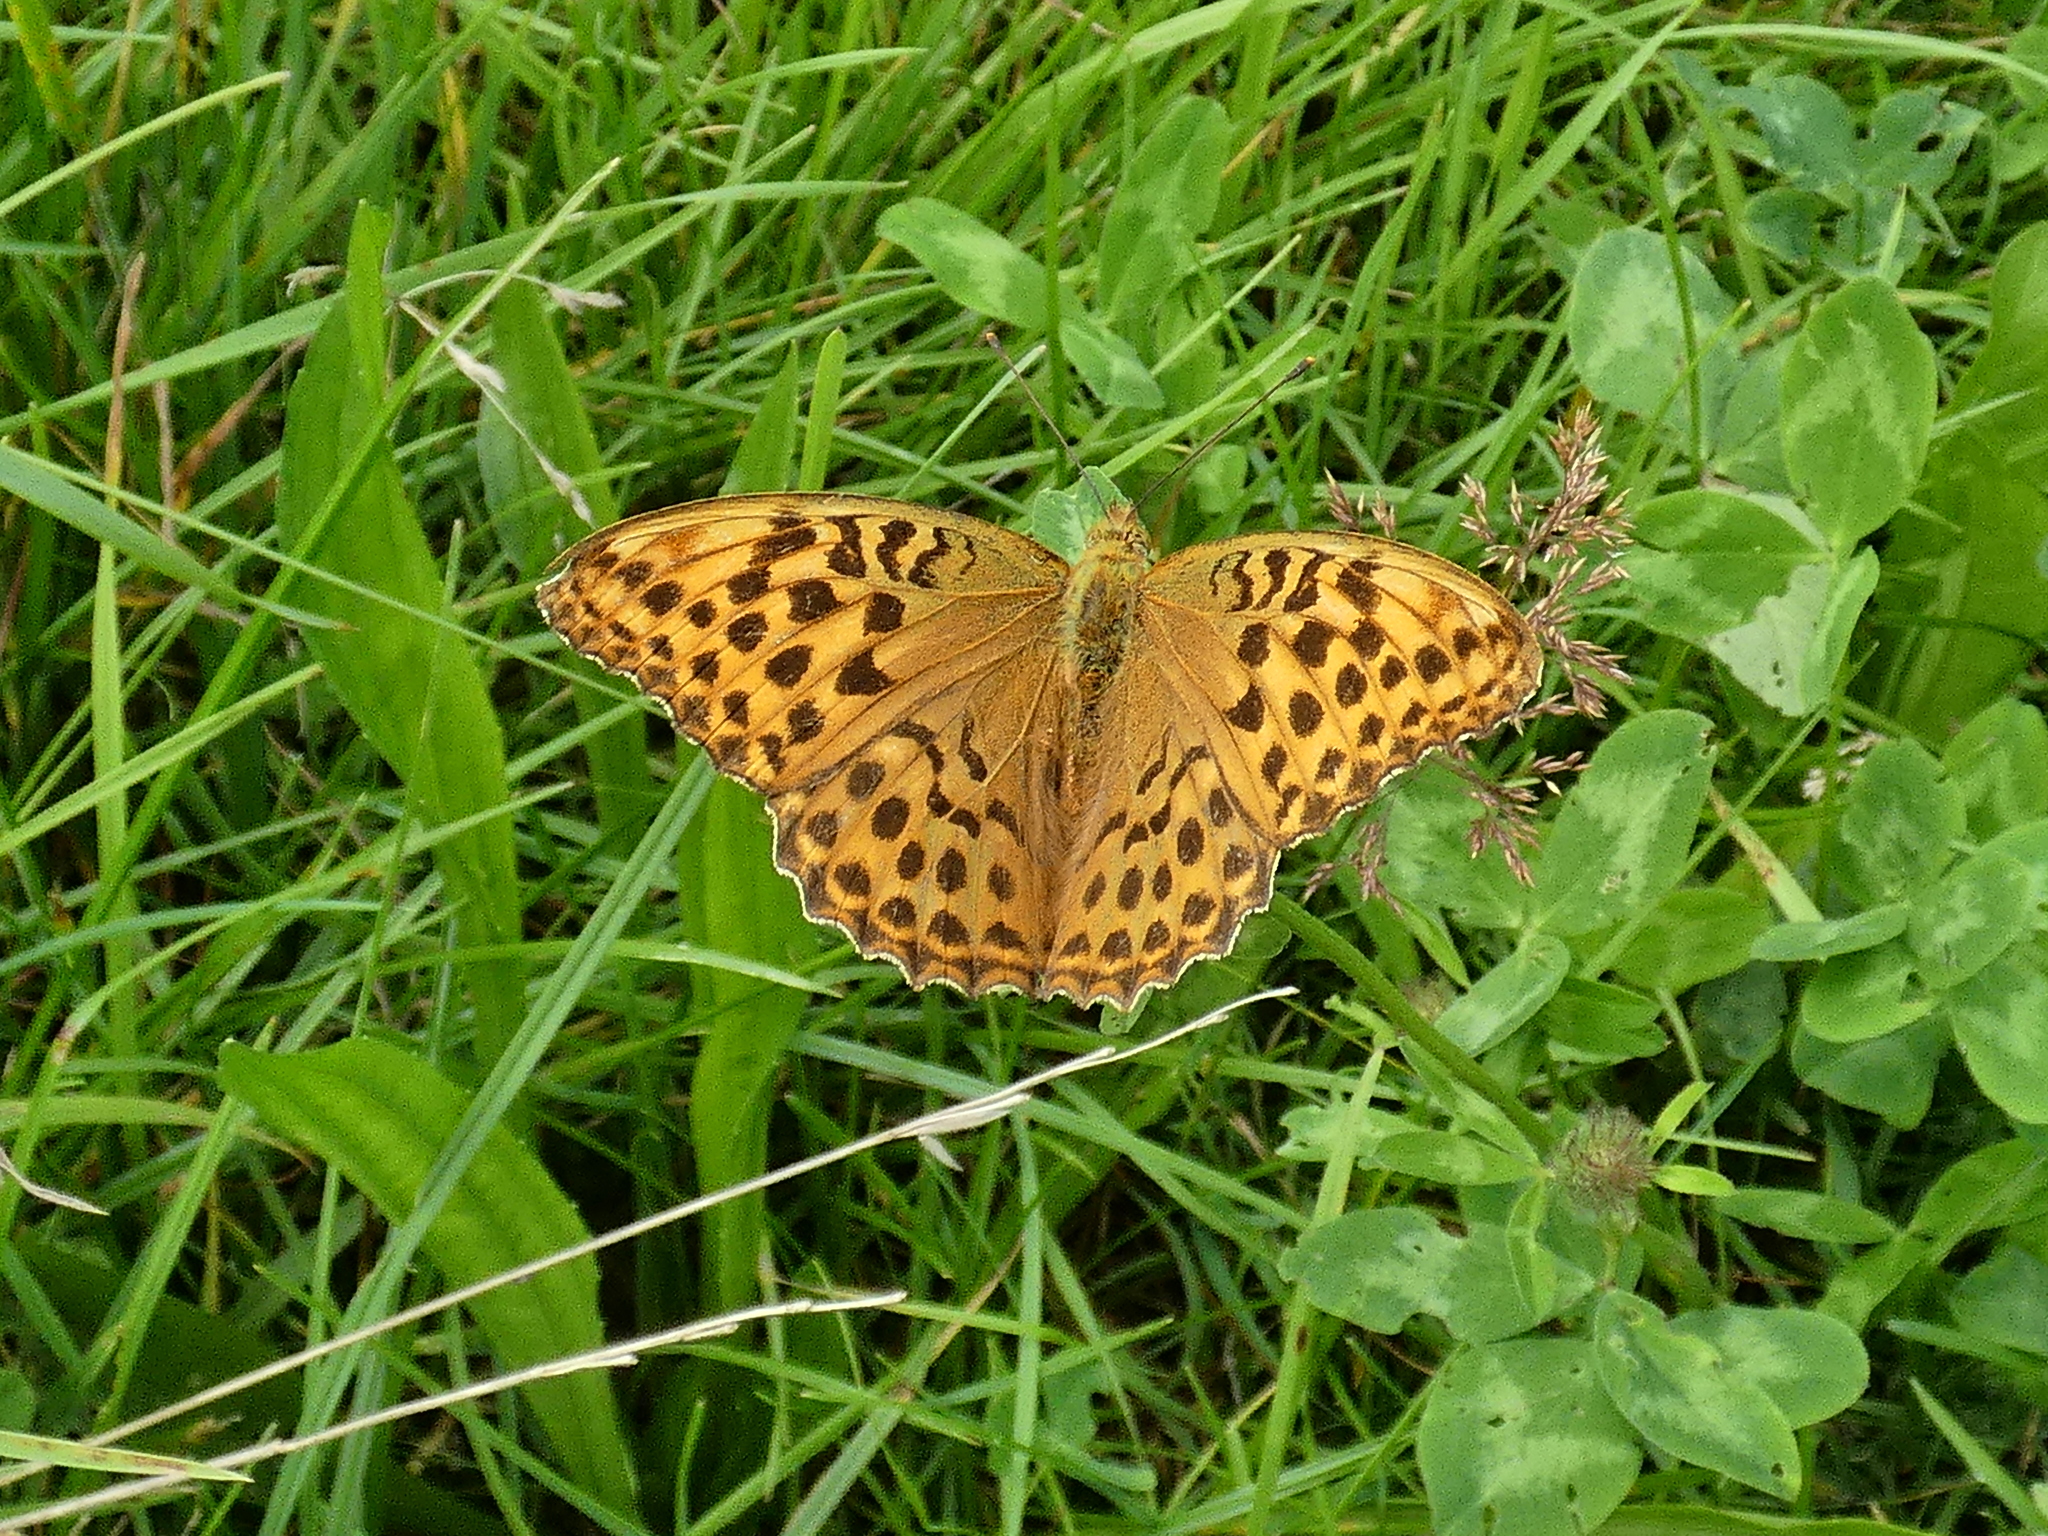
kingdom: Animalia
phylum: Arthropoda
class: Insecta
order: Lepidoptera
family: Nymphalidae
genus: Argynnis
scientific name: Argynnis paphia
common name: Silver-washed fritillary
